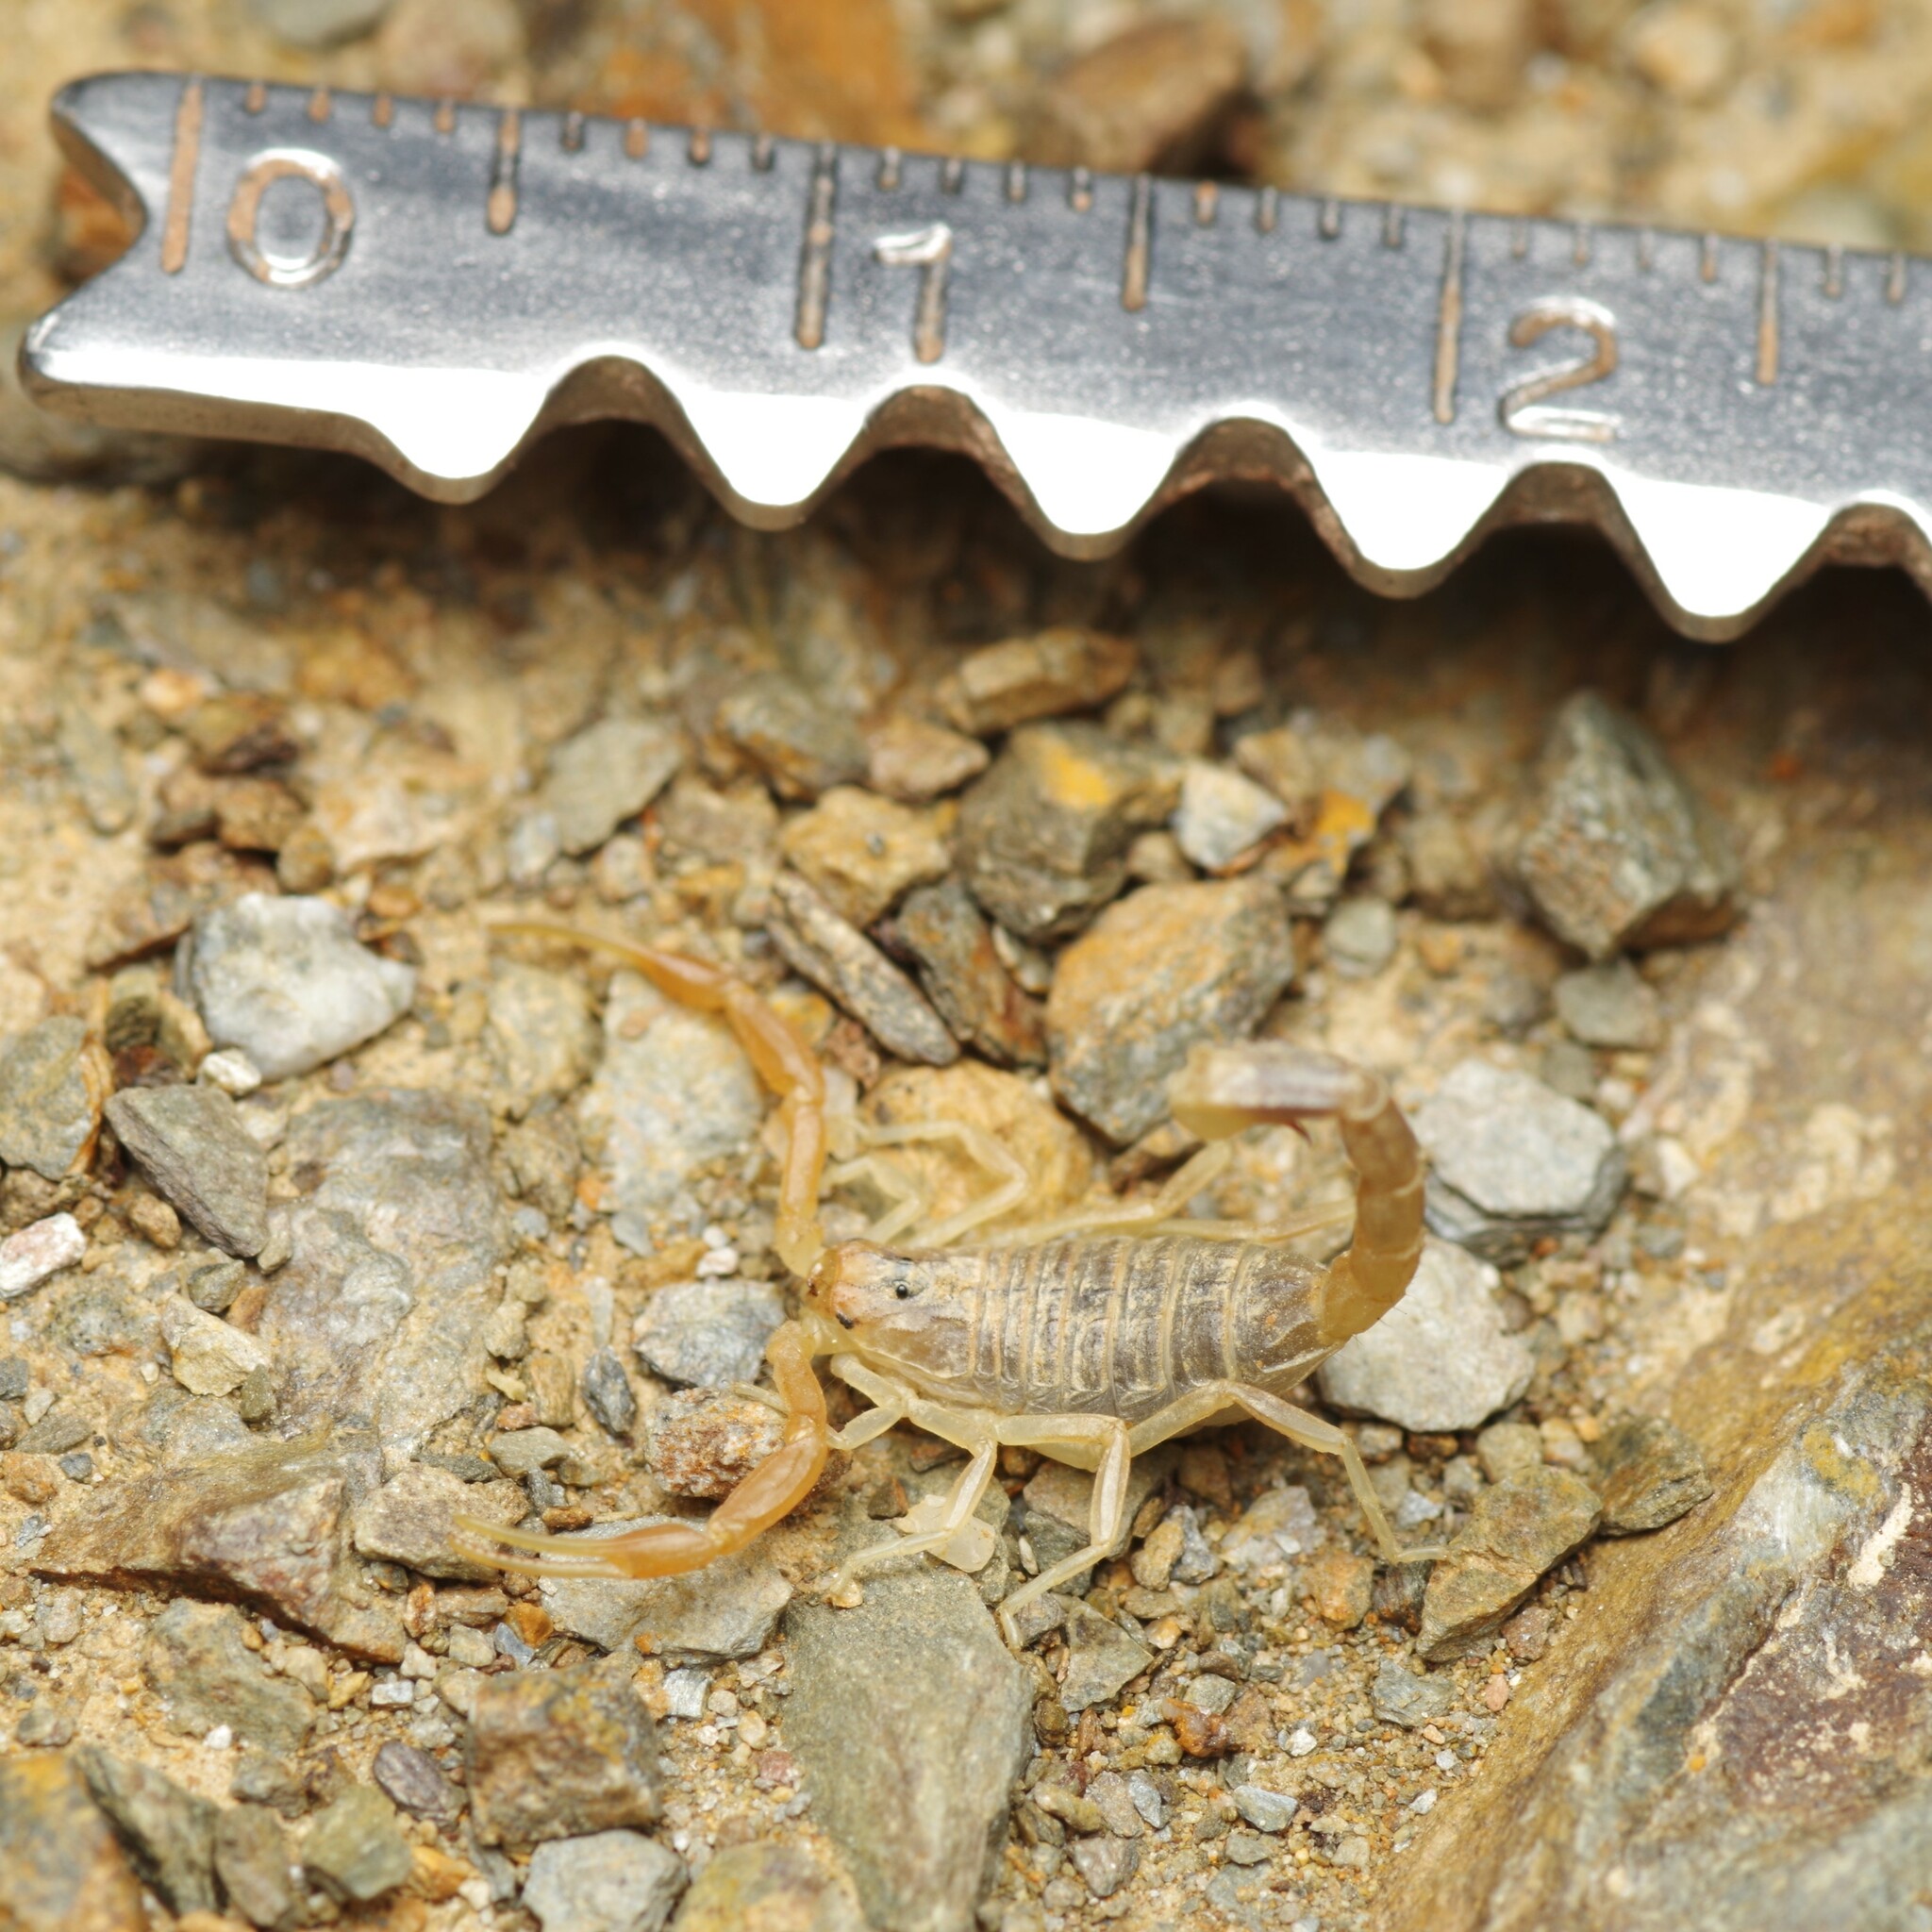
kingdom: Animalia
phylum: Arthropoda
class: Arachnida
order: Scorpiones
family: Buthidae
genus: Buthus
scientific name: Buthus pyrenaeus
